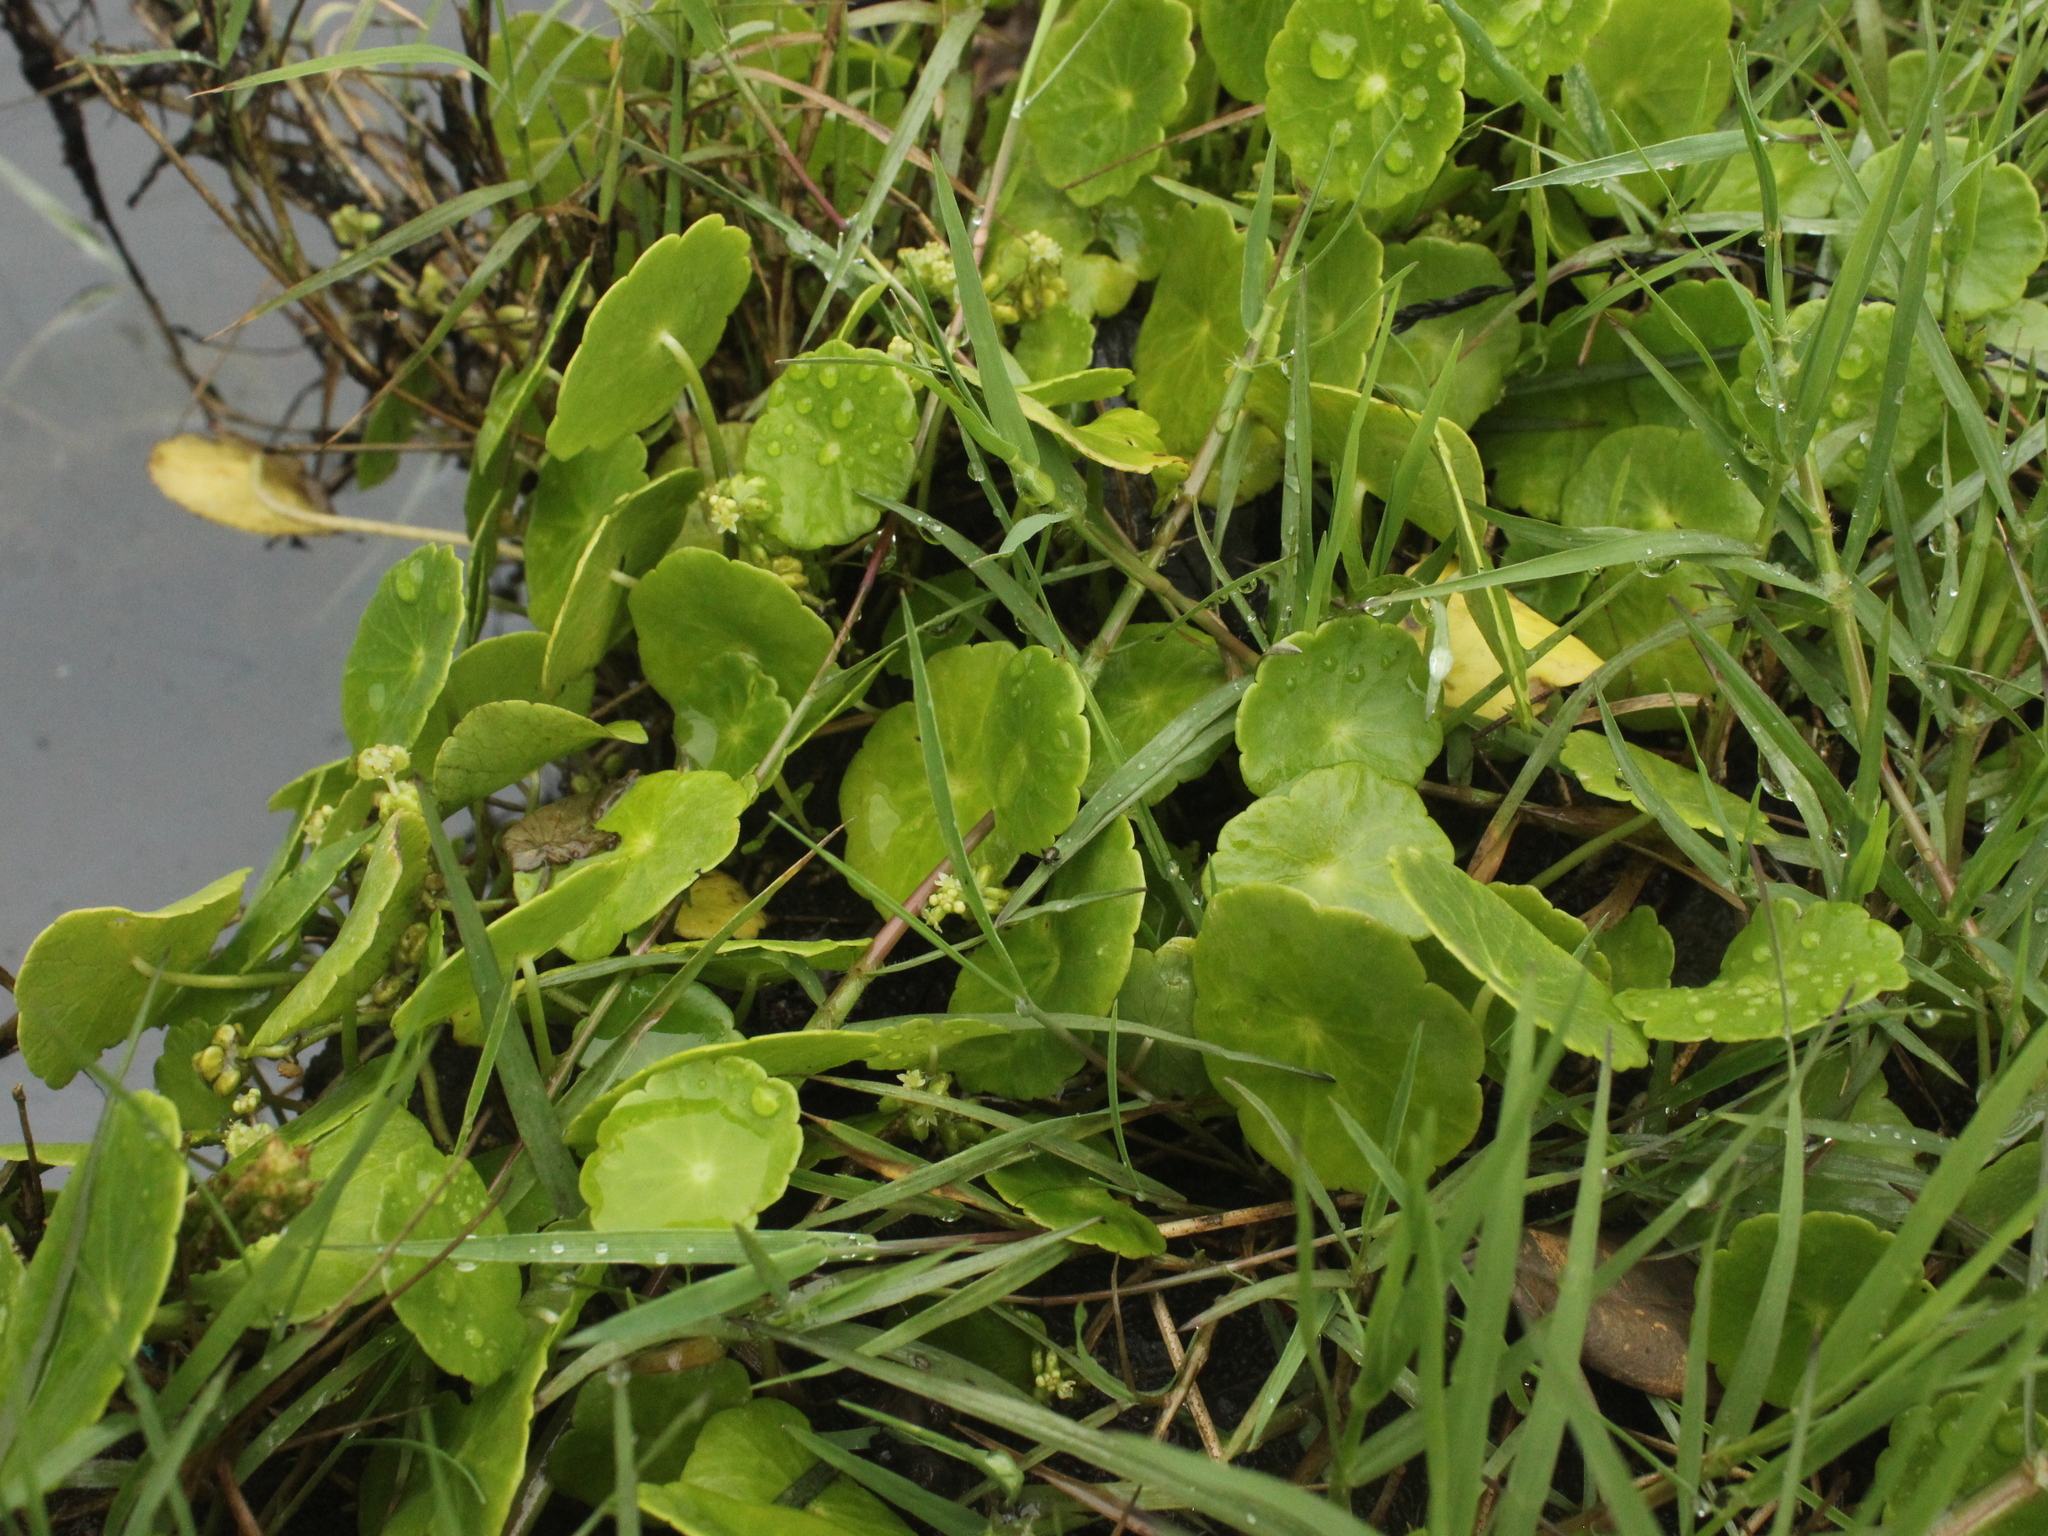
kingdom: Plantae
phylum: Tracheophyta
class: Magnoliopsida
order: Apiales
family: Araliaceae
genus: Hydrocotyle
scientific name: Hydrocotyle verticillata
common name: Whorled marshpennywort
